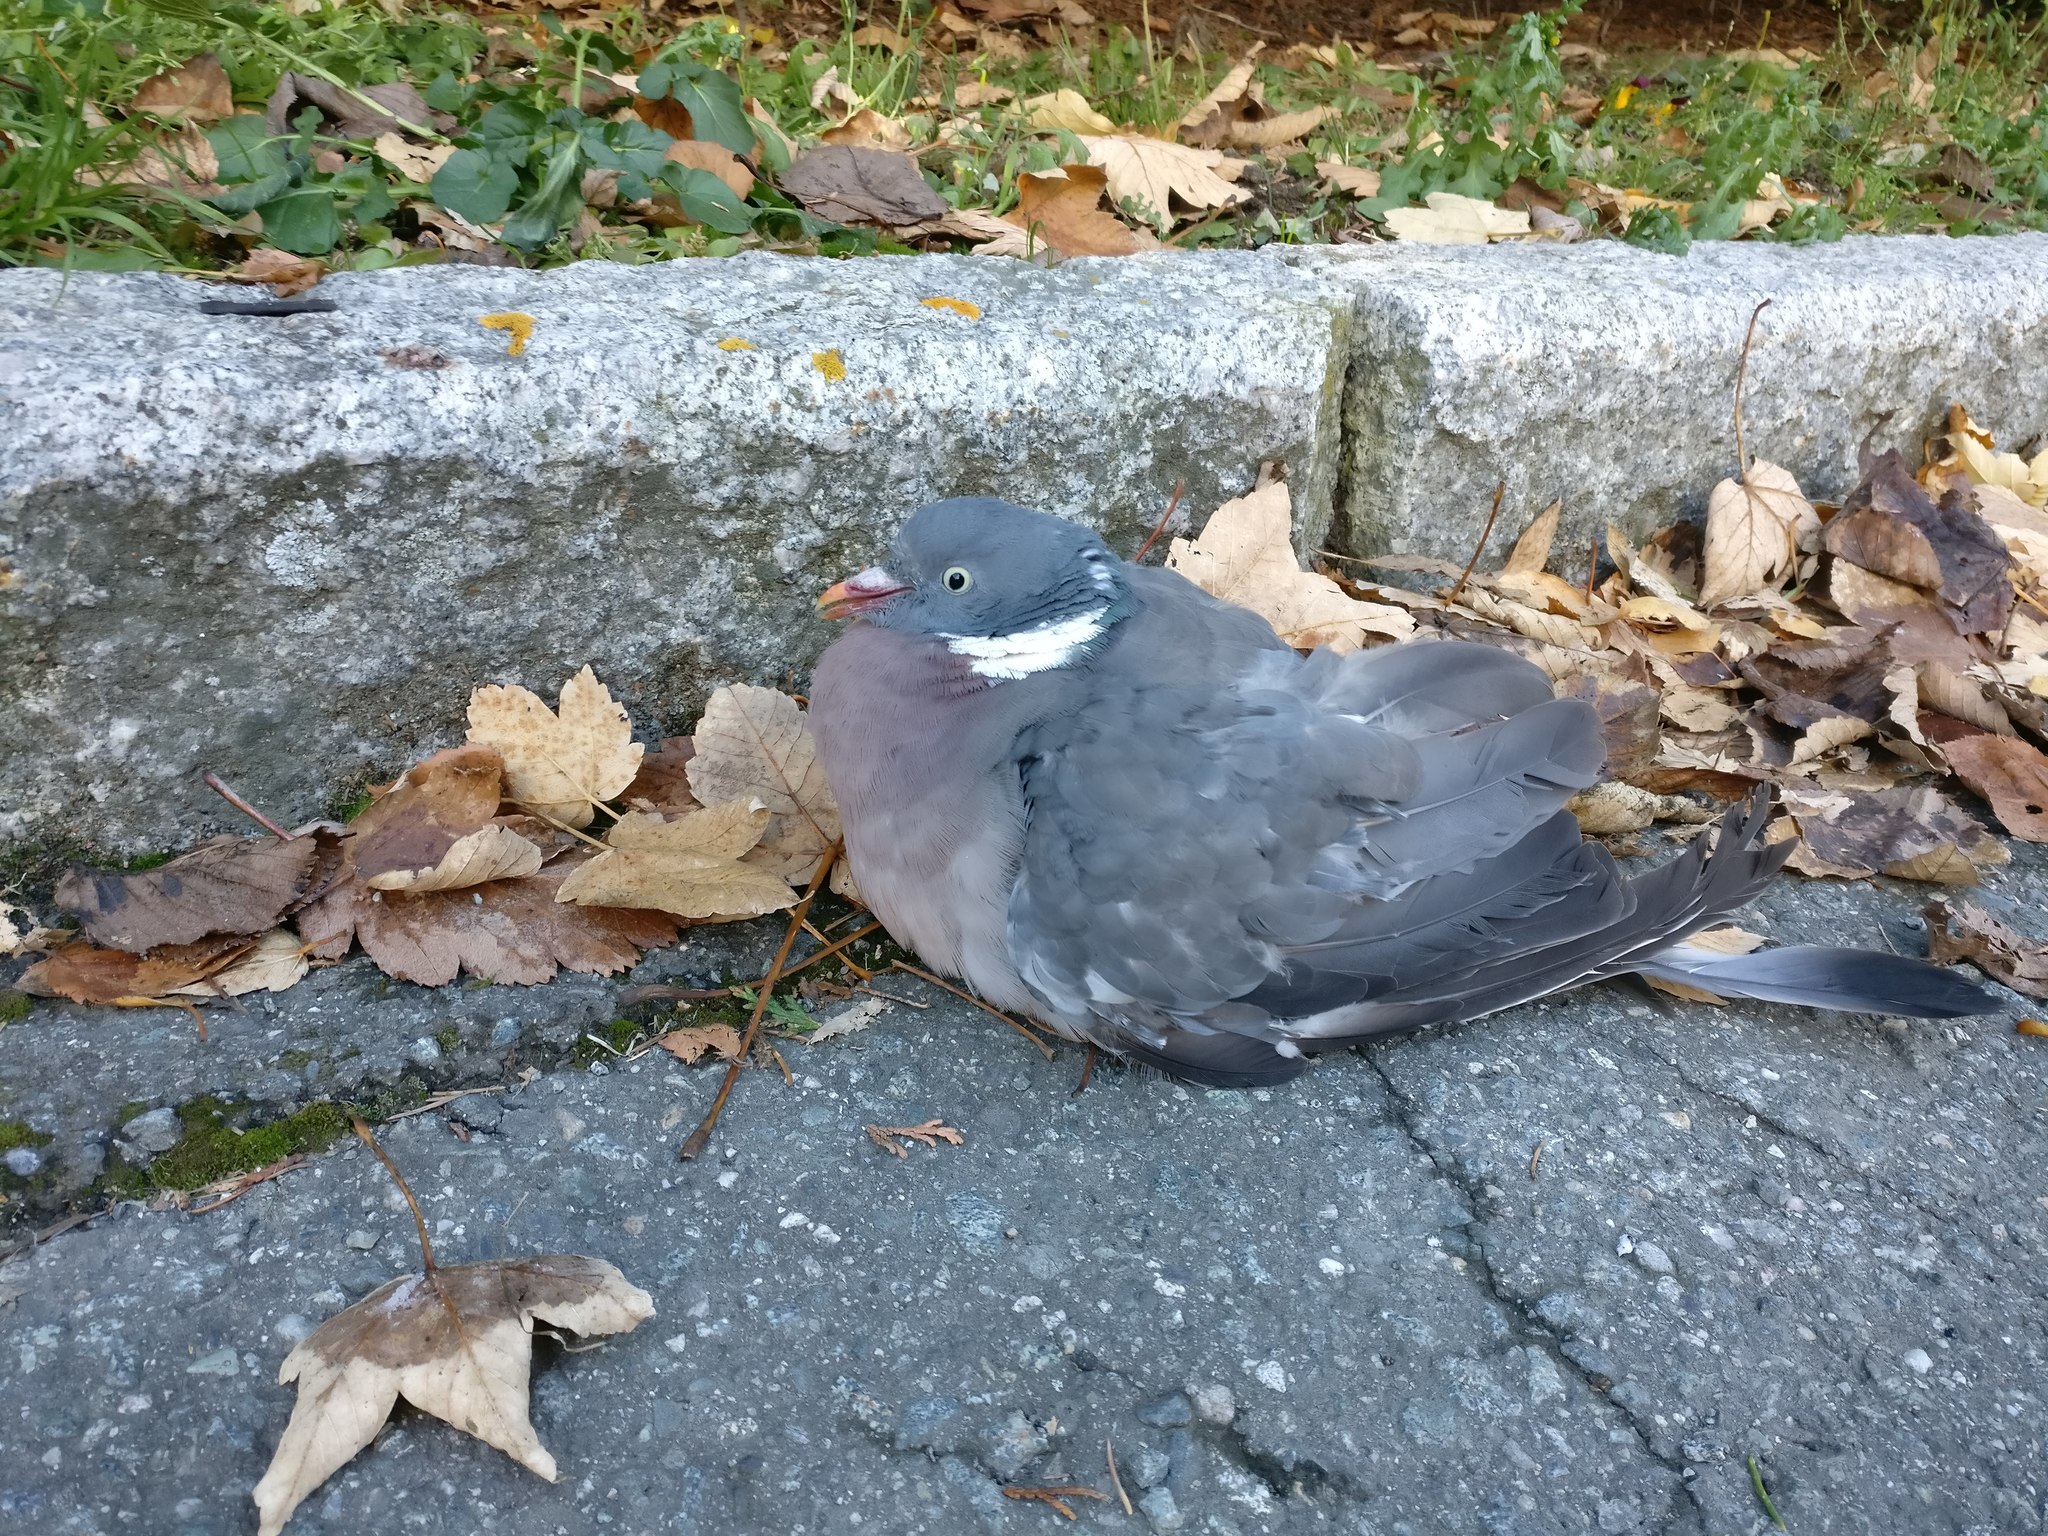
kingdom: Animalia
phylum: Chordata
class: Aves
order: Columbiformes
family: Columbidae
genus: Columba
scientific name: Columba palumbus
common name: Common wood pigeon
